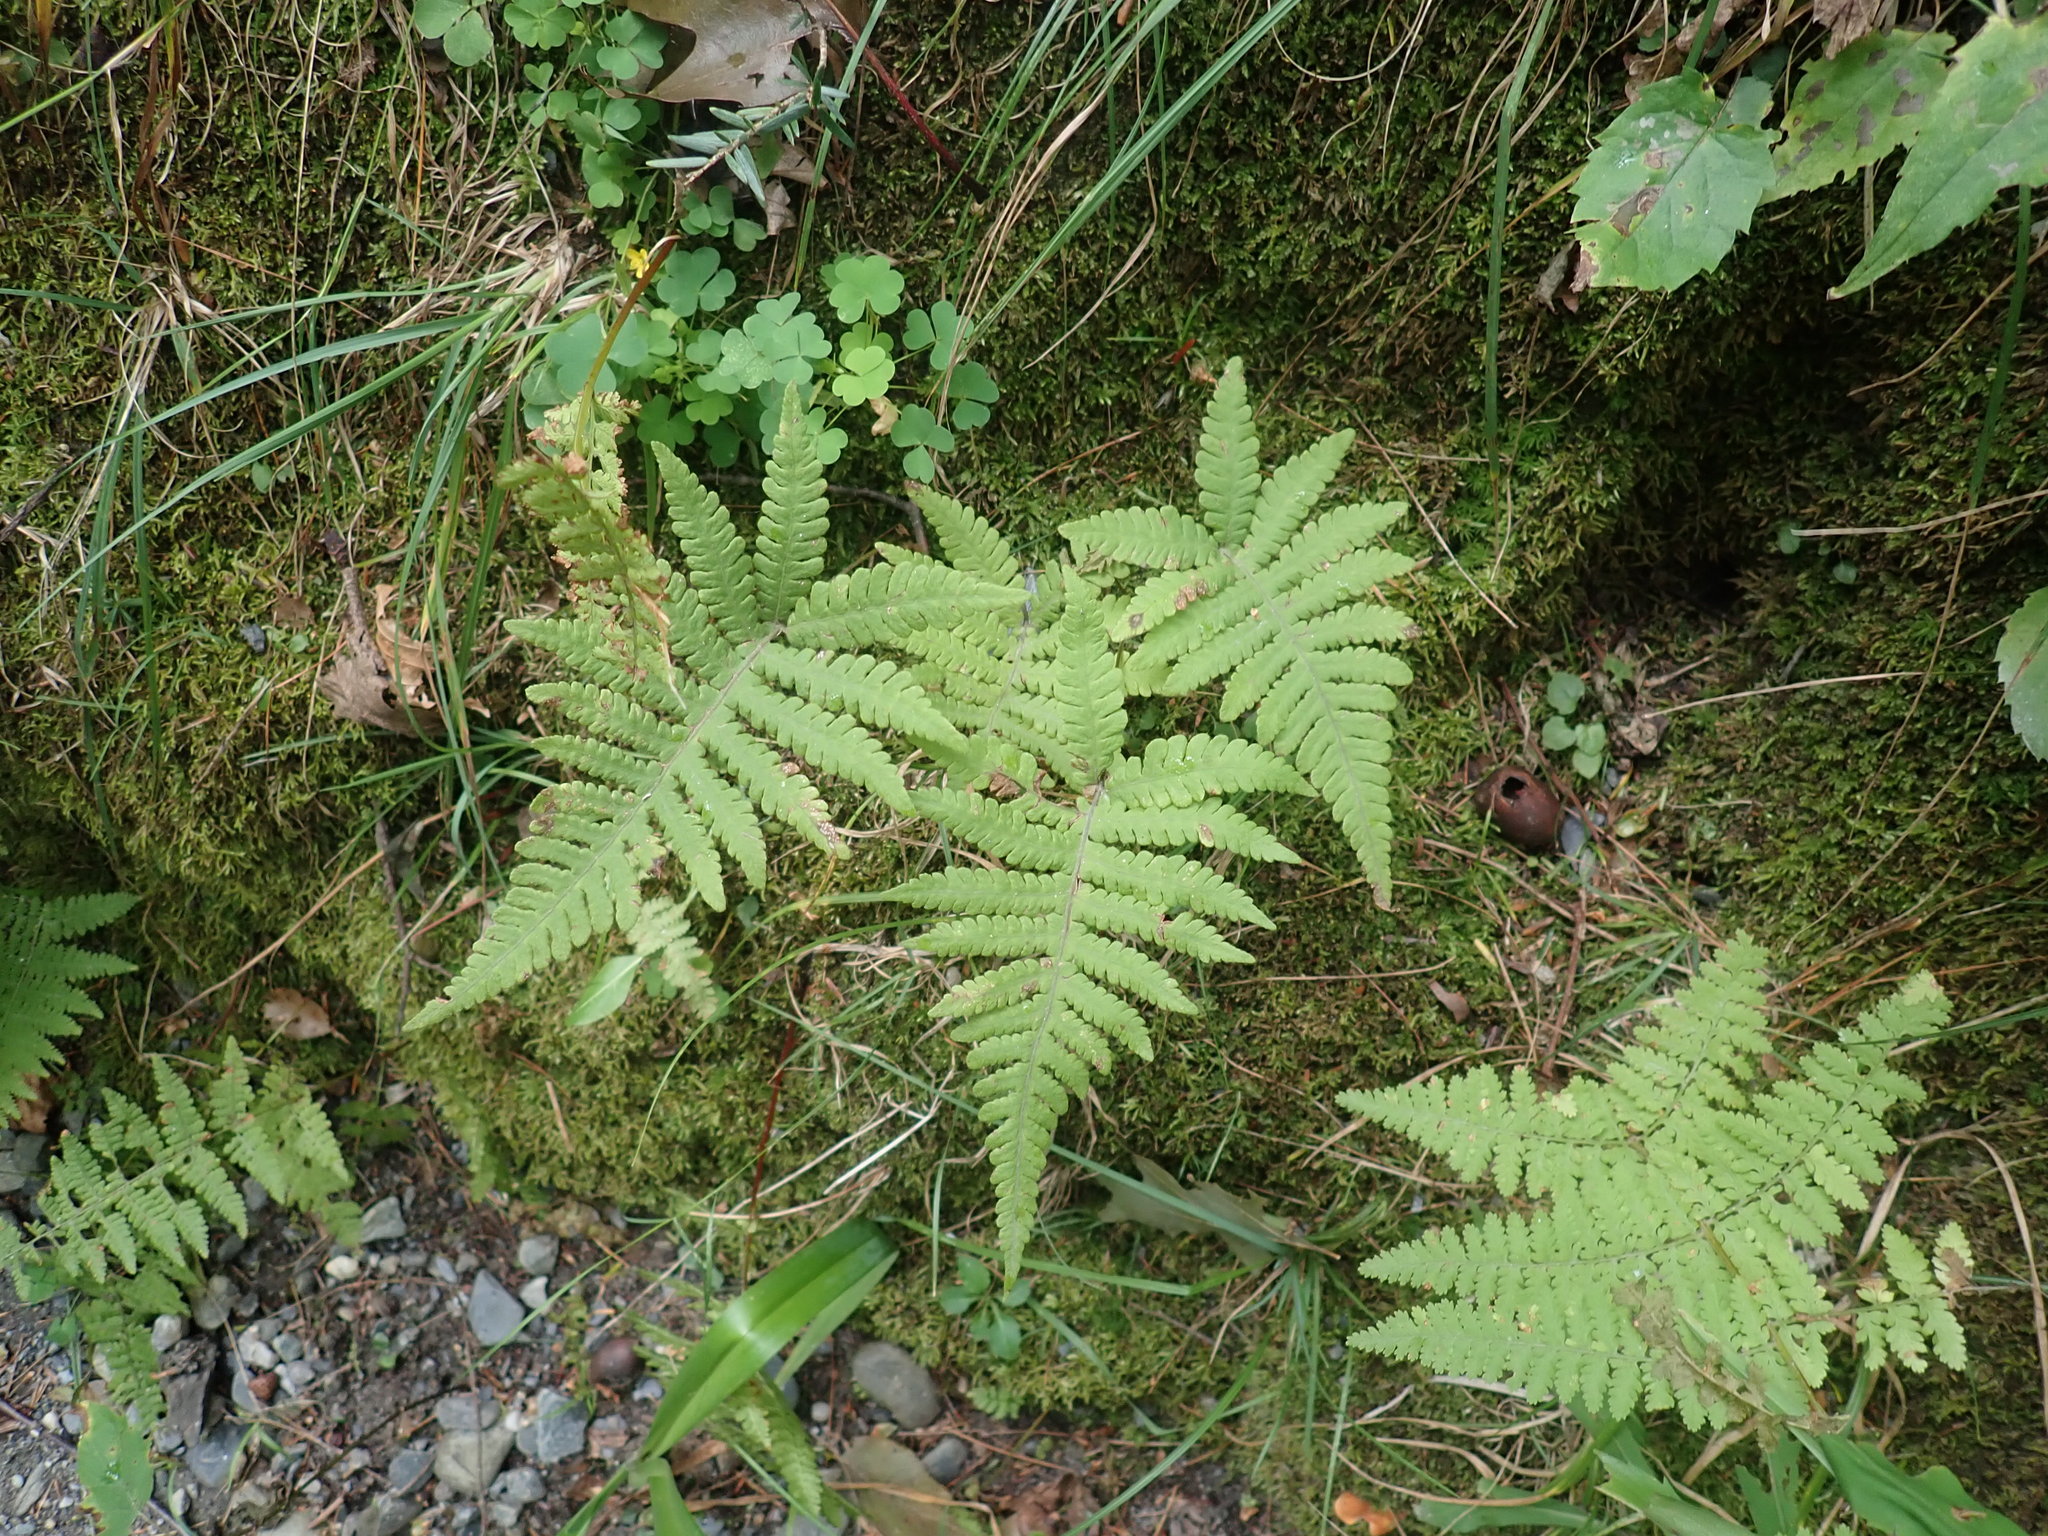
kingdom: Plantae
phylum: Tracheophyta
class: Polypodiopsida
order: Polypodiales
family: Thelypteridaceae
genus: Phegopteris
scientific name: Phegopteris connectilis
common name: Beech fern
